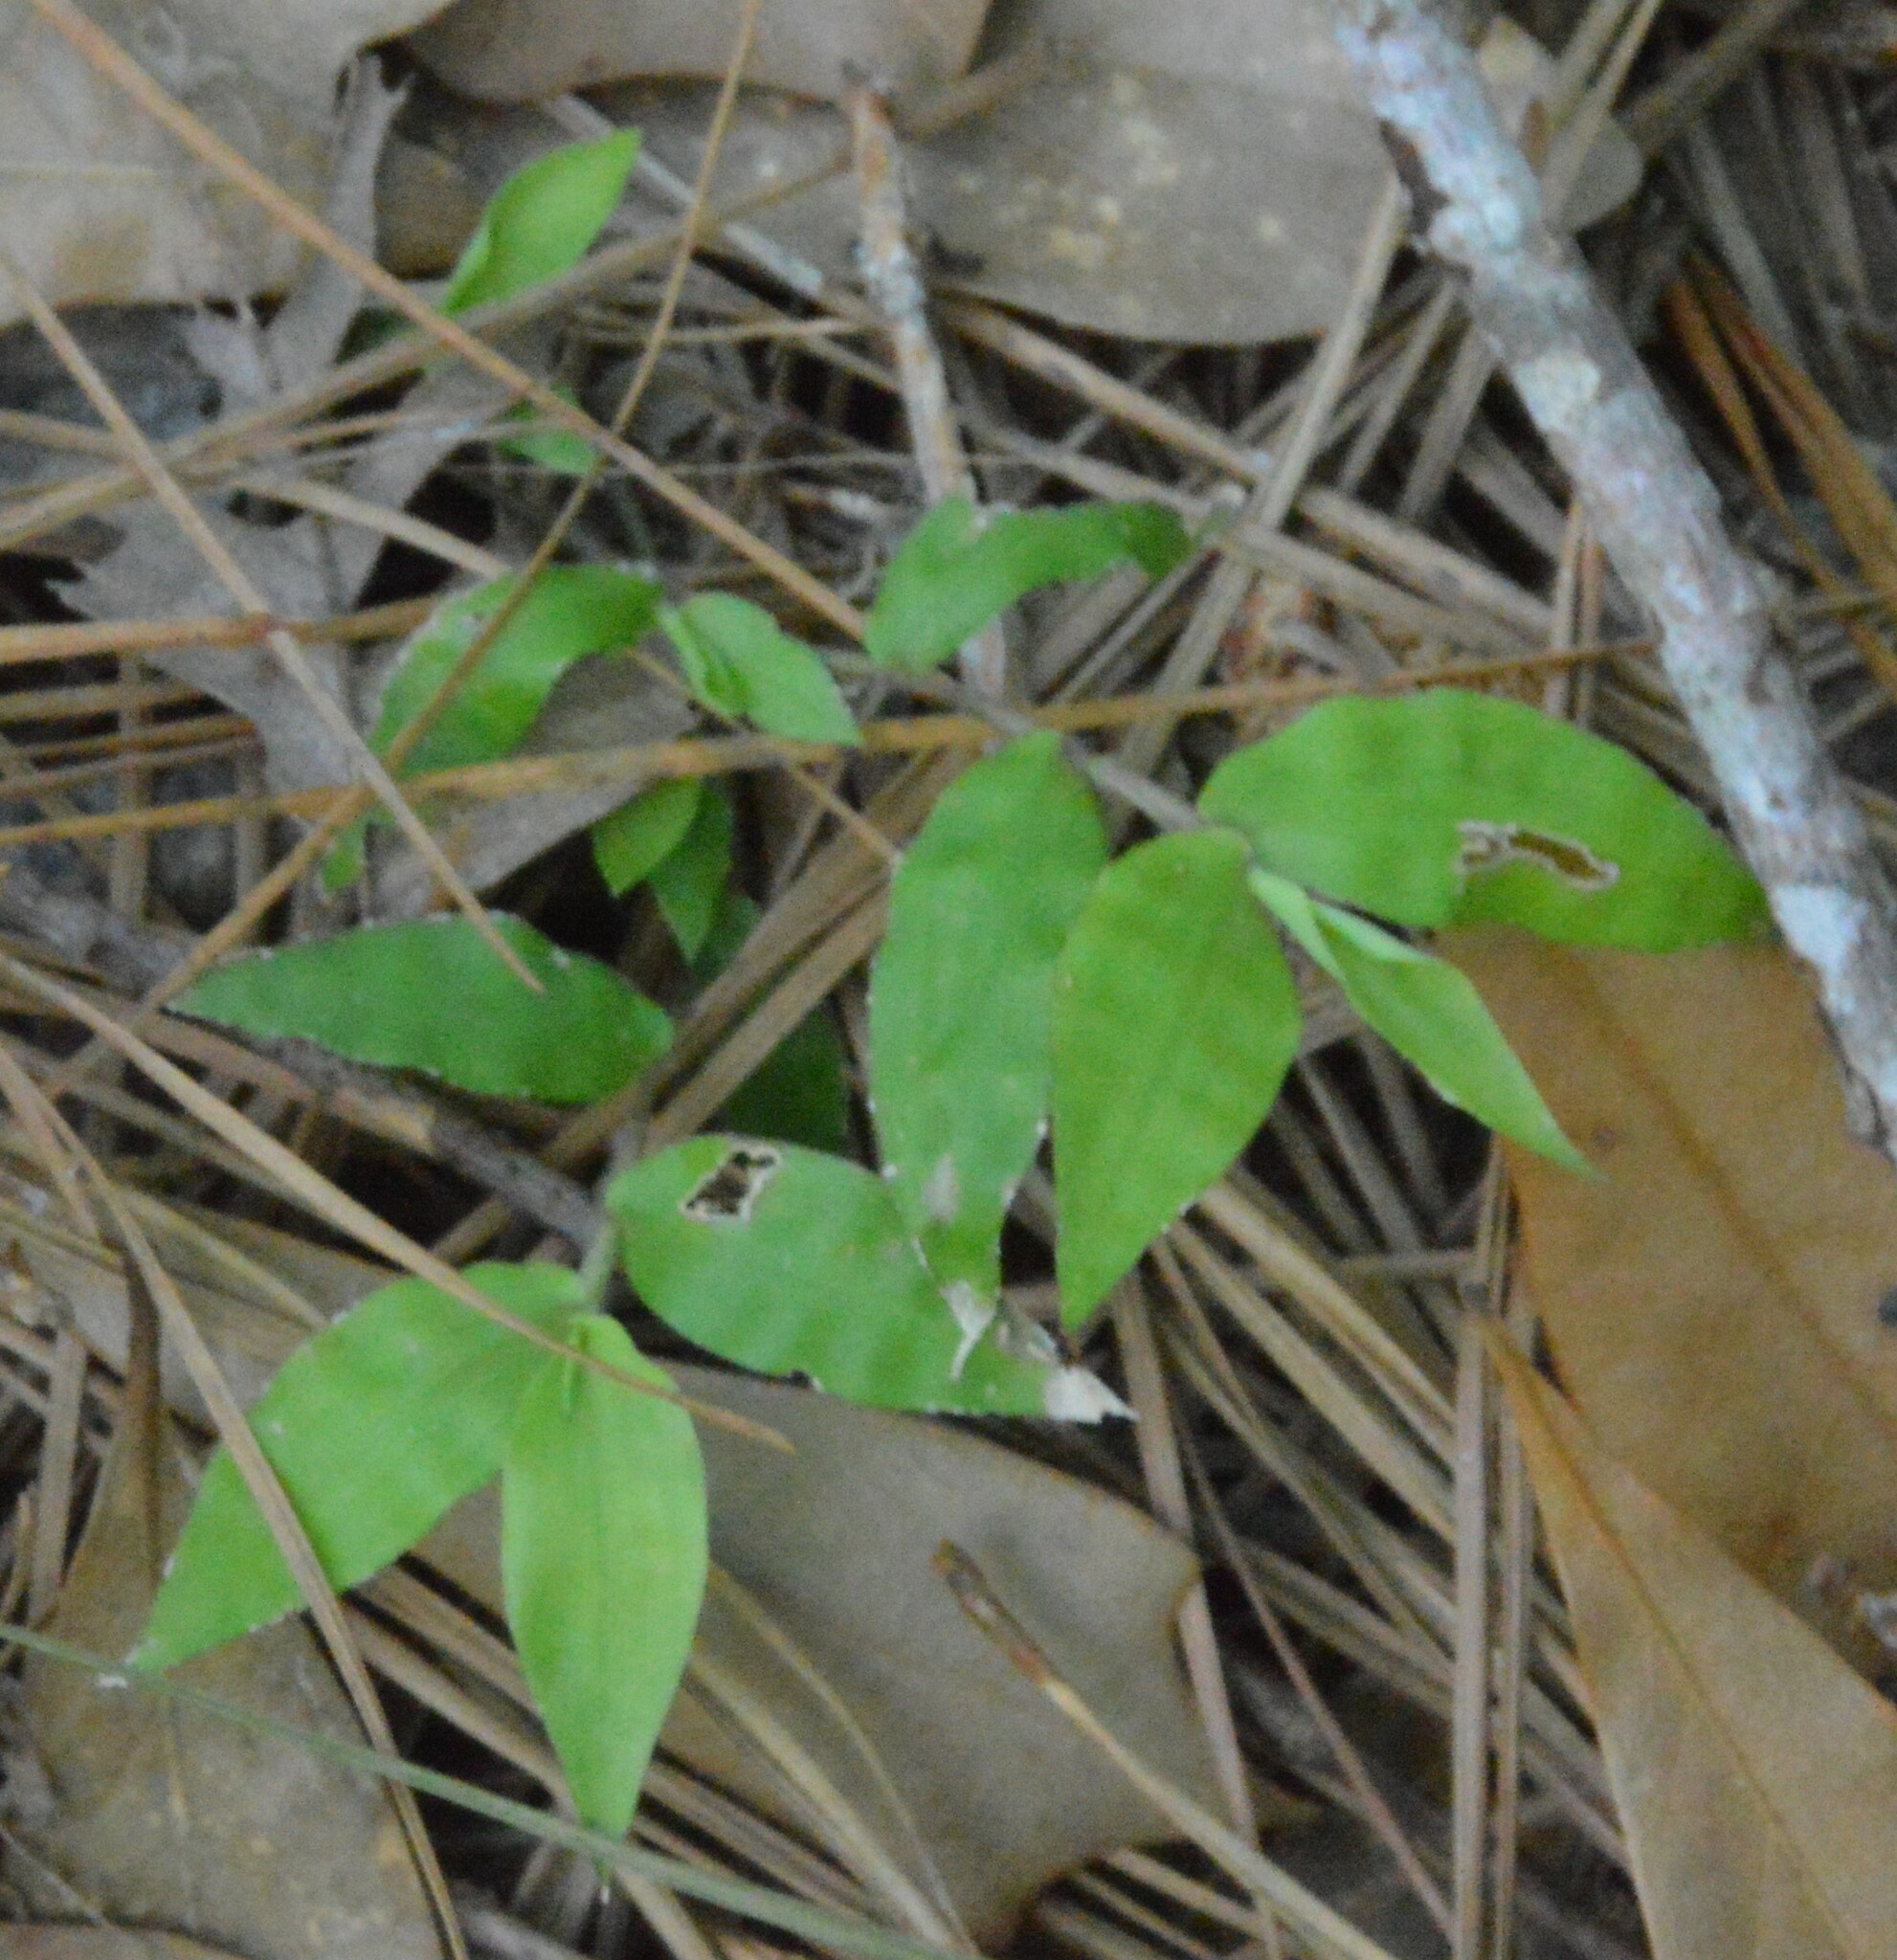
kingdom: Plantae
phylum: Tracheophyta
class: Liliopsida
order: Poales
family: Poaceae
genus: Oplismenus
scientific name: Oplismenus hirtellus
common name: Basketgrass
